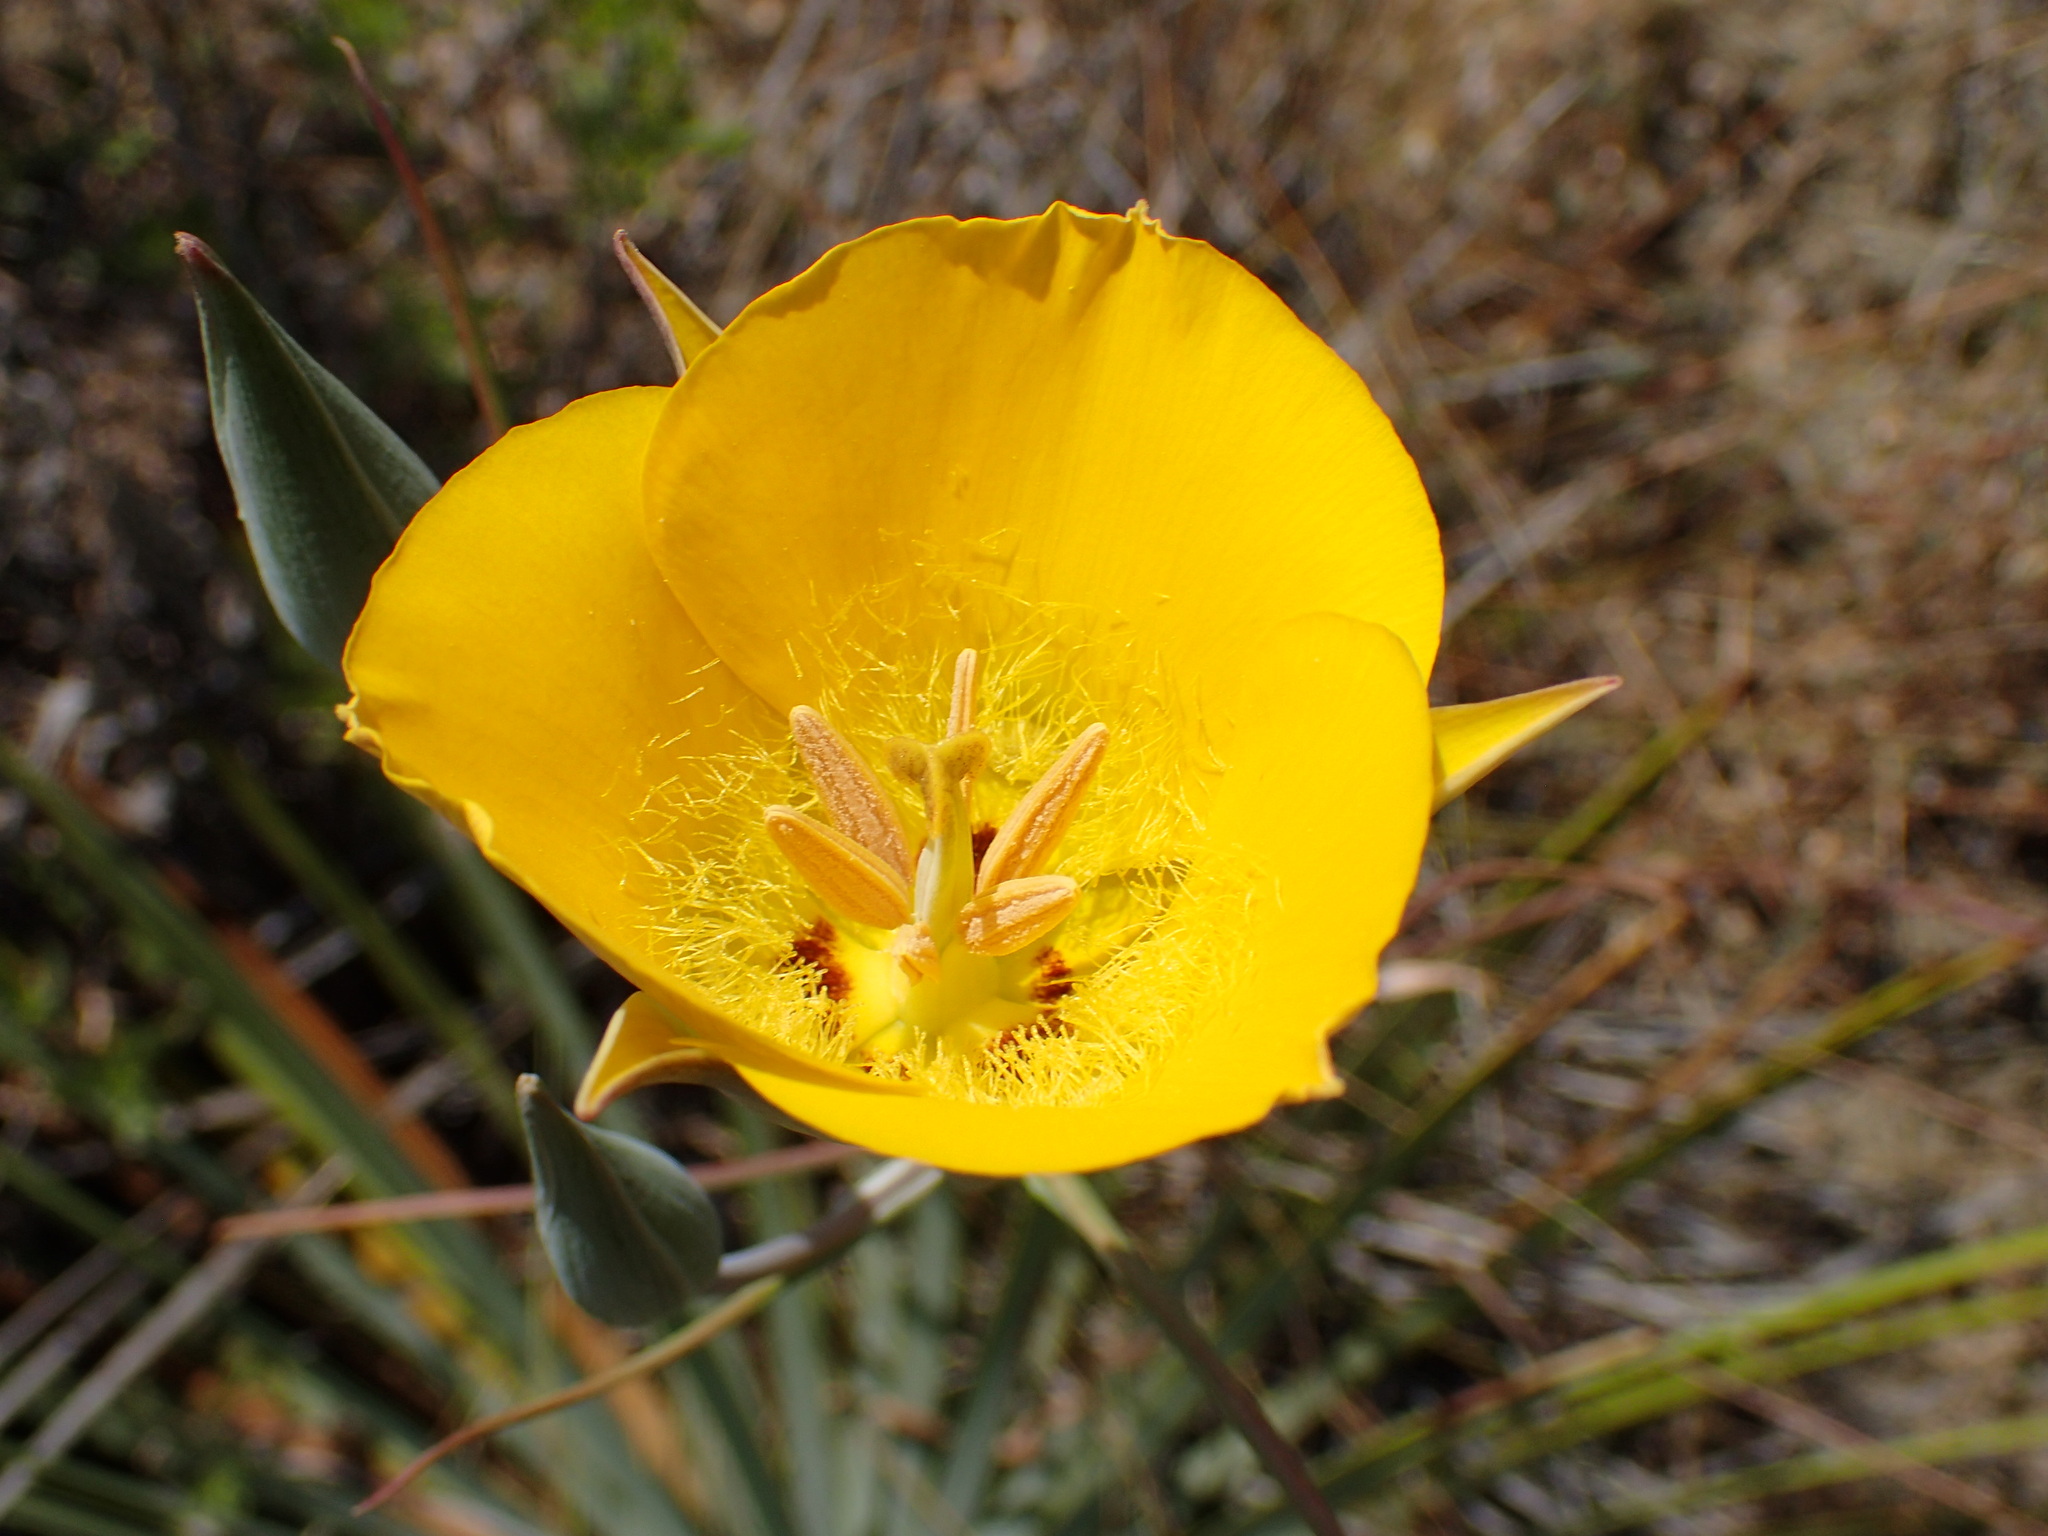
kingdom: Plantae
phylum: Tracheophyta
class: Liliopsida
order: Liliales
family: Liliaceae
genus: Calochortus
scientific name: Calochortus clavatus
